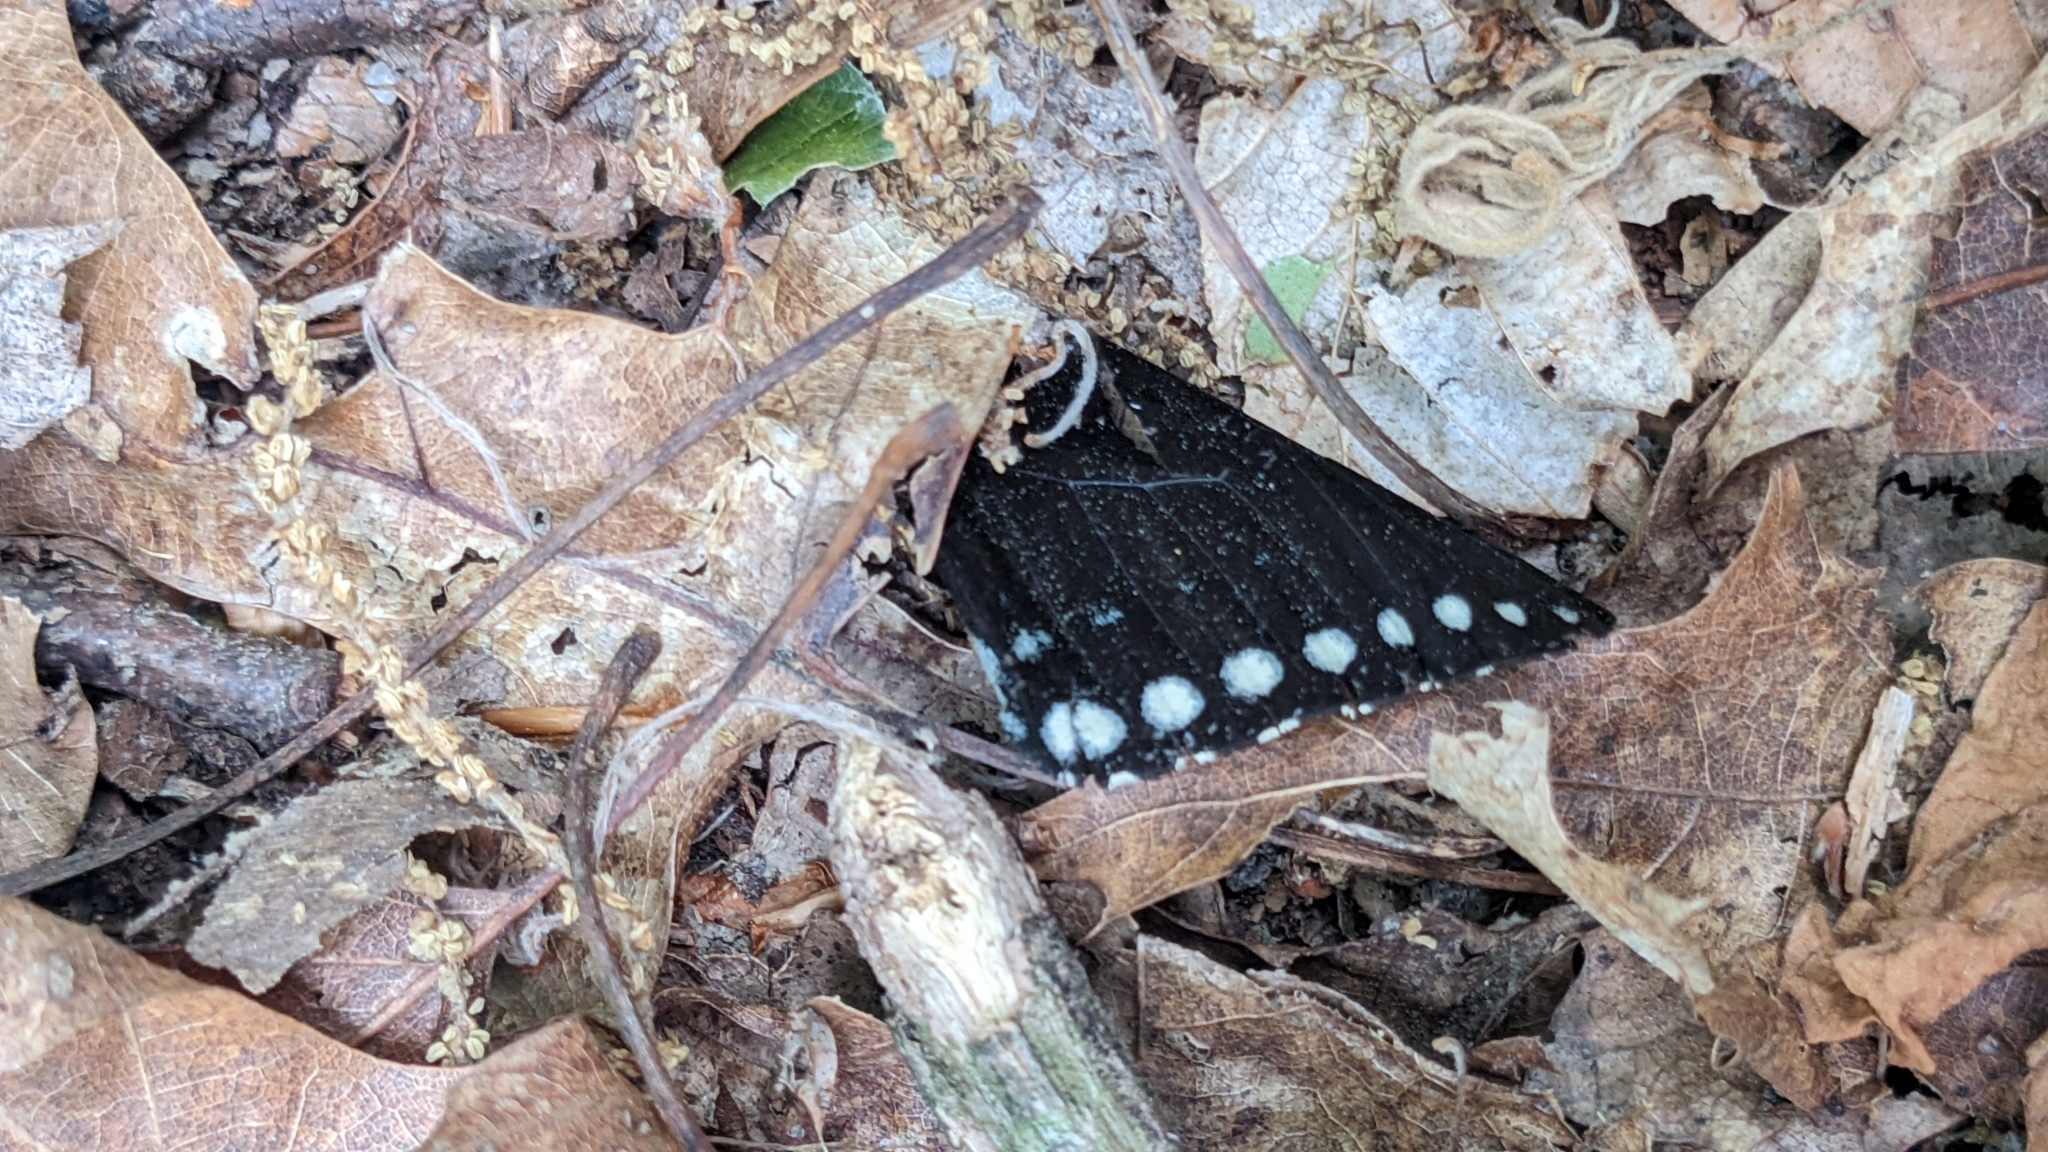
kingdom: Animalia
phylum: Arthropoda
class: Insecta
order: Lepidoptera
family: Papilionidae
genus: Papilio
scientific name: Papilio troilus
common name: Spicebush swallowtail
